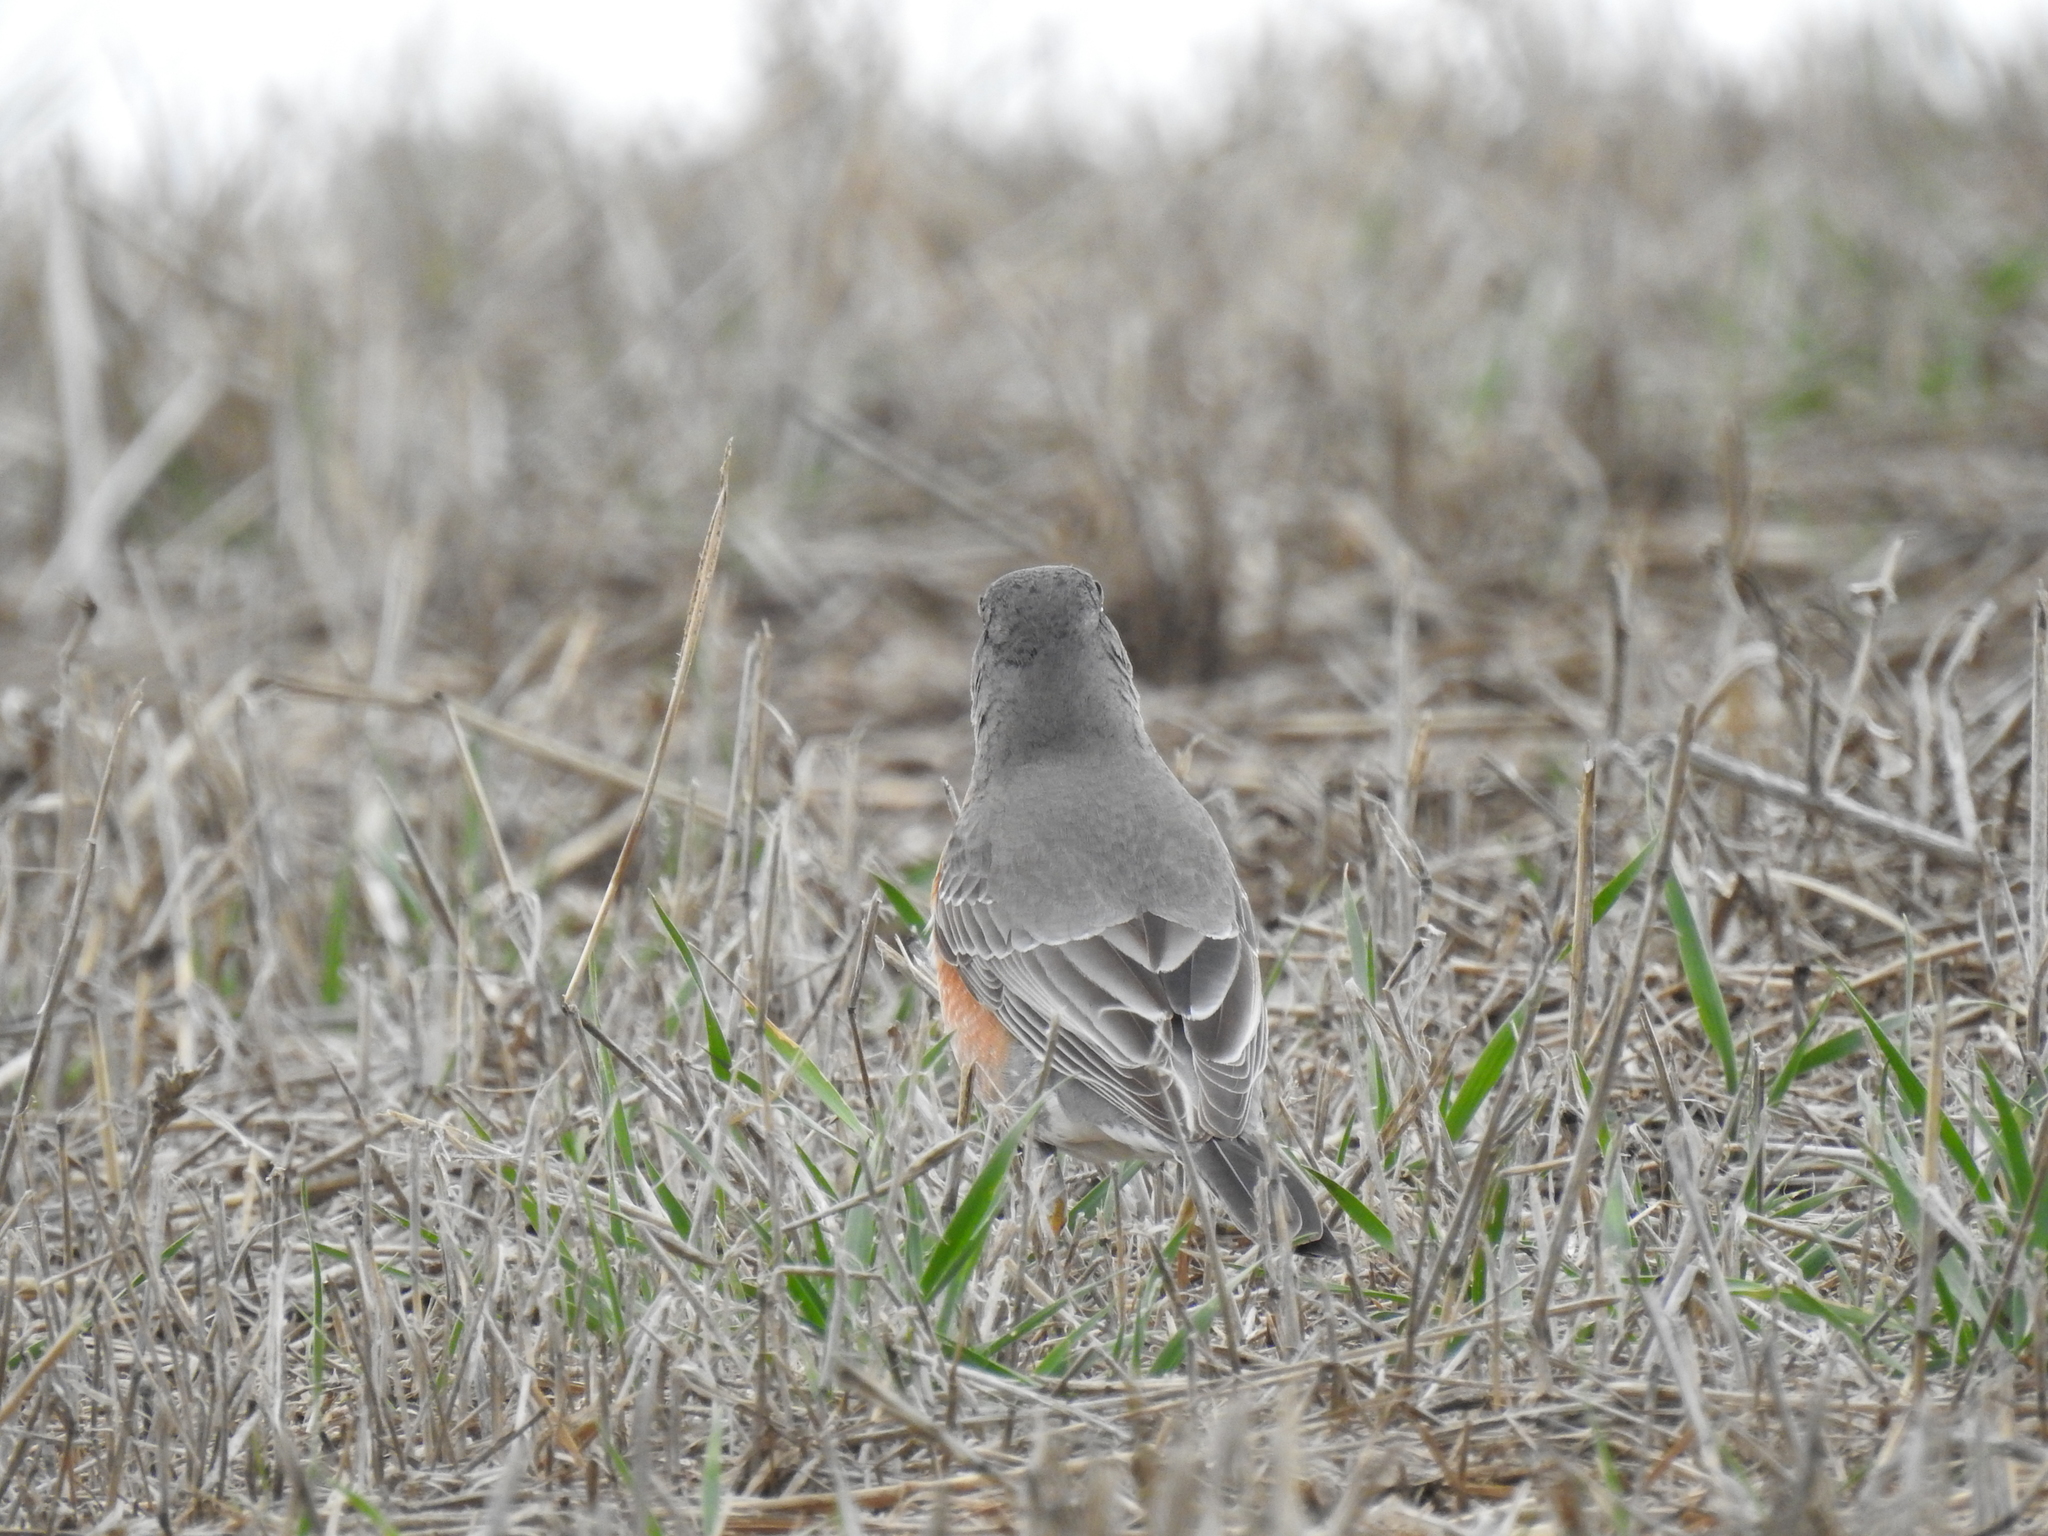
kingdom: Animalia
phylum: Chordata
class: Aves
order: Passeriformes
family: Turdidae
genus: Turdus
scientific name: Turdus migratorius
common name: American robin
